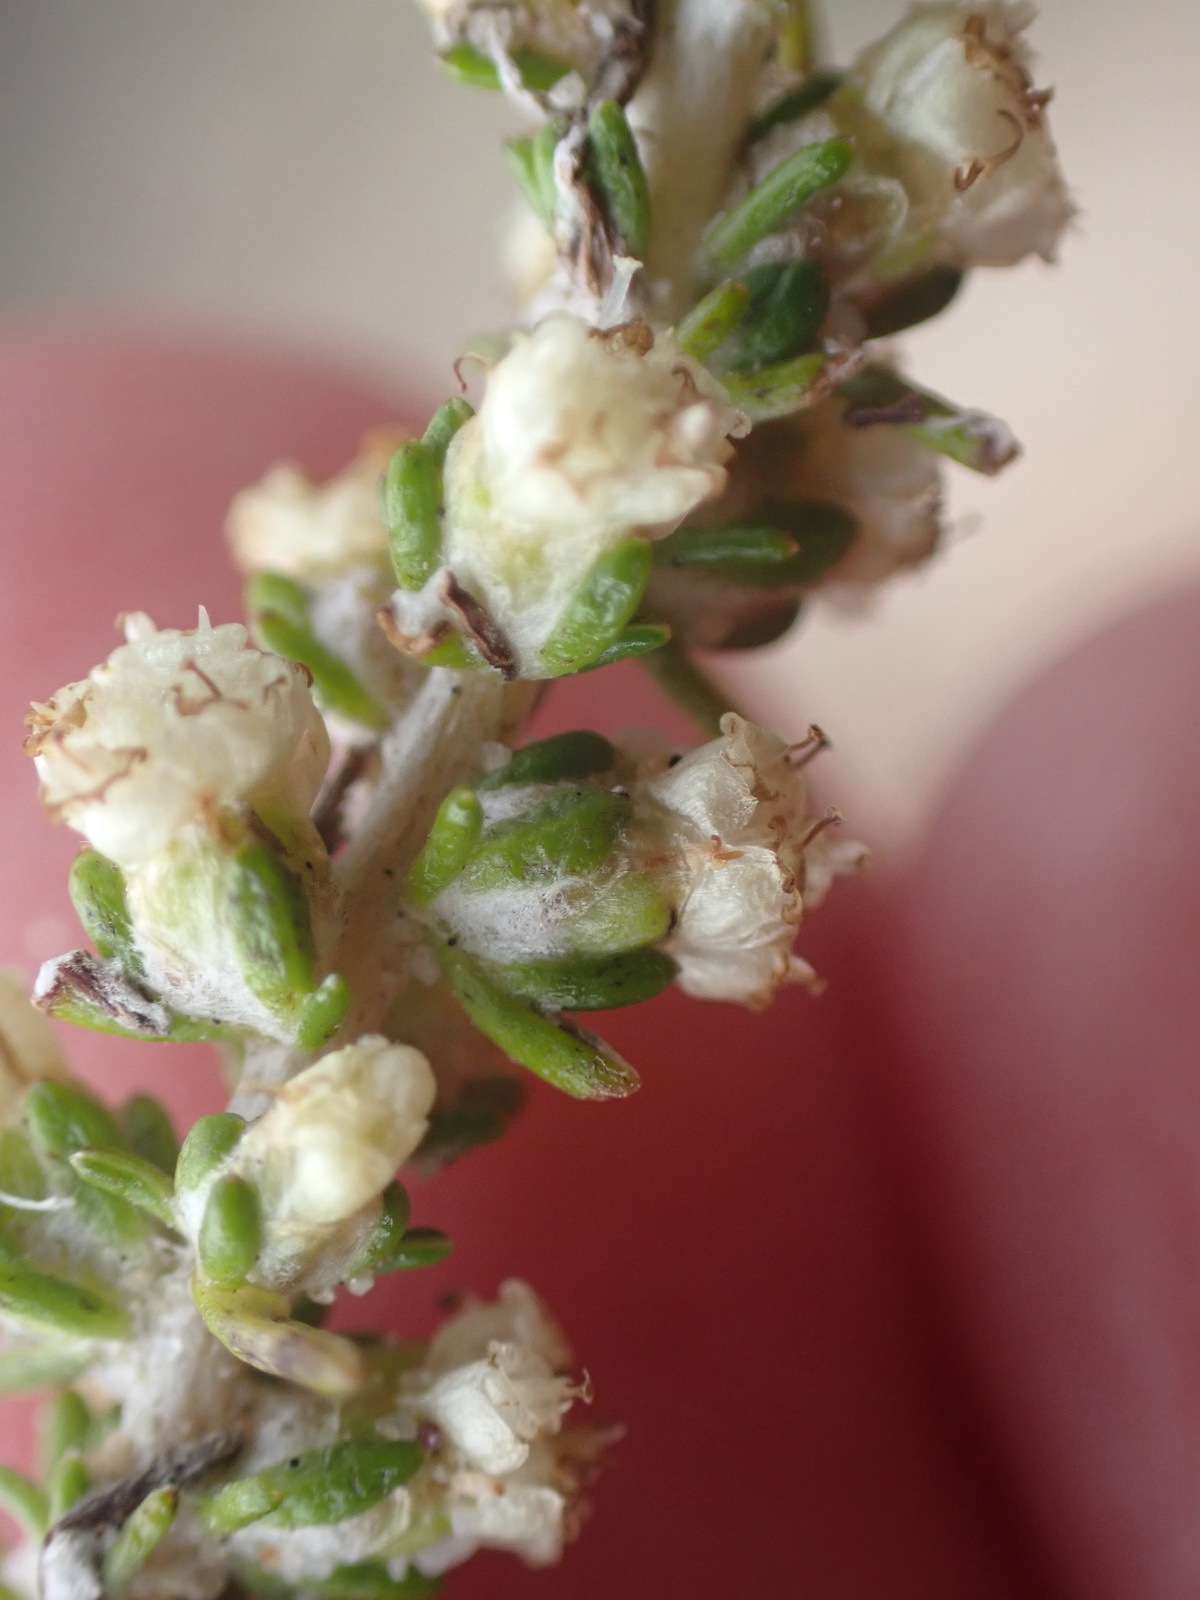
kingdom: Plantae
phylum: Tracheophyta
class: Magnoliopsida
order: Asterales
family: Asteraceae
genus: Ifloga
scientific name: Ifloga ambigua
